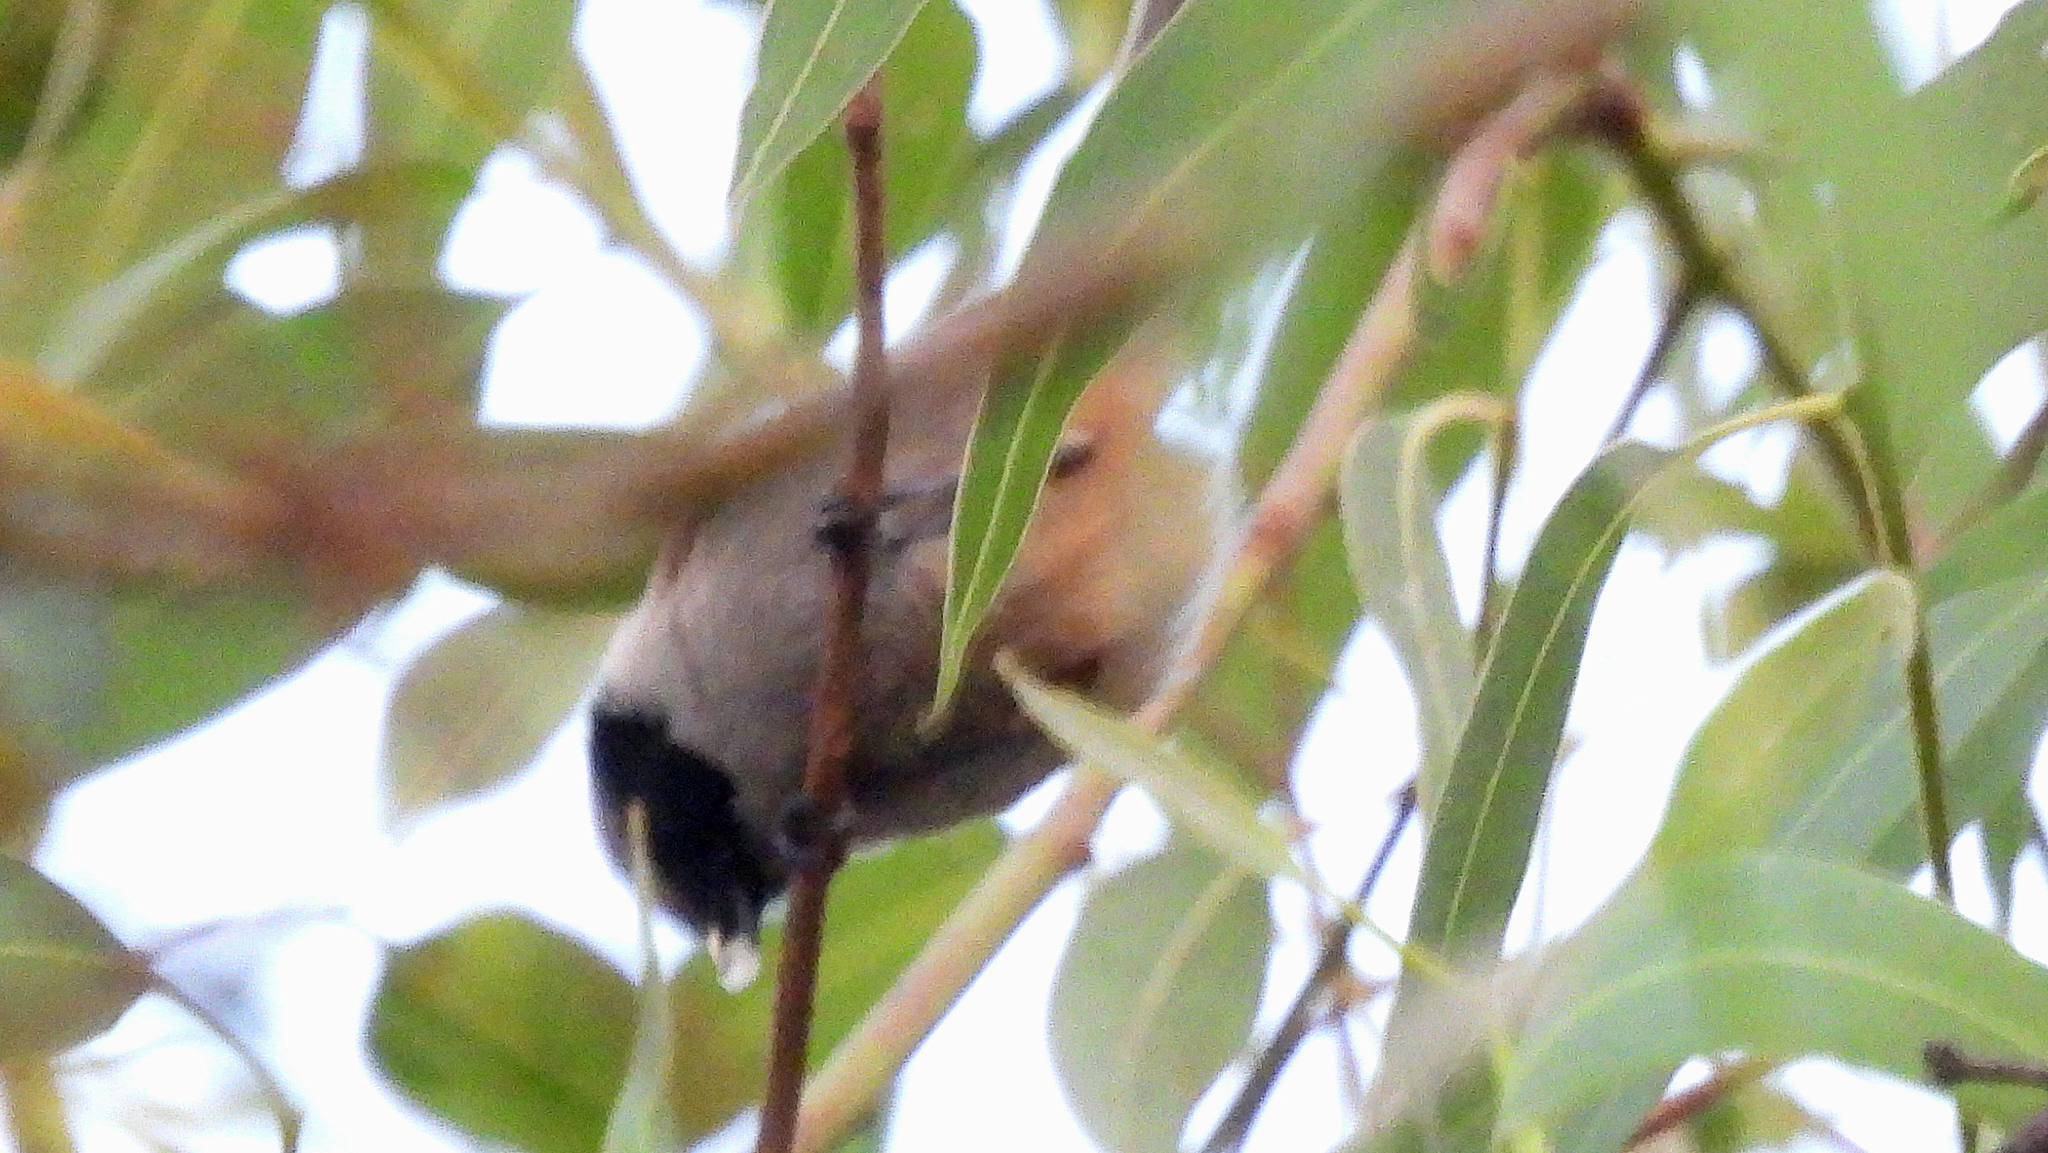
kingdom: Animalia
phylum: Chordata
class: Aves
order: Passeriformes
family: Aegithalidae
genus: Psaltriparus
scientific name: Psaltriparus minimus
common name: American bushtit
